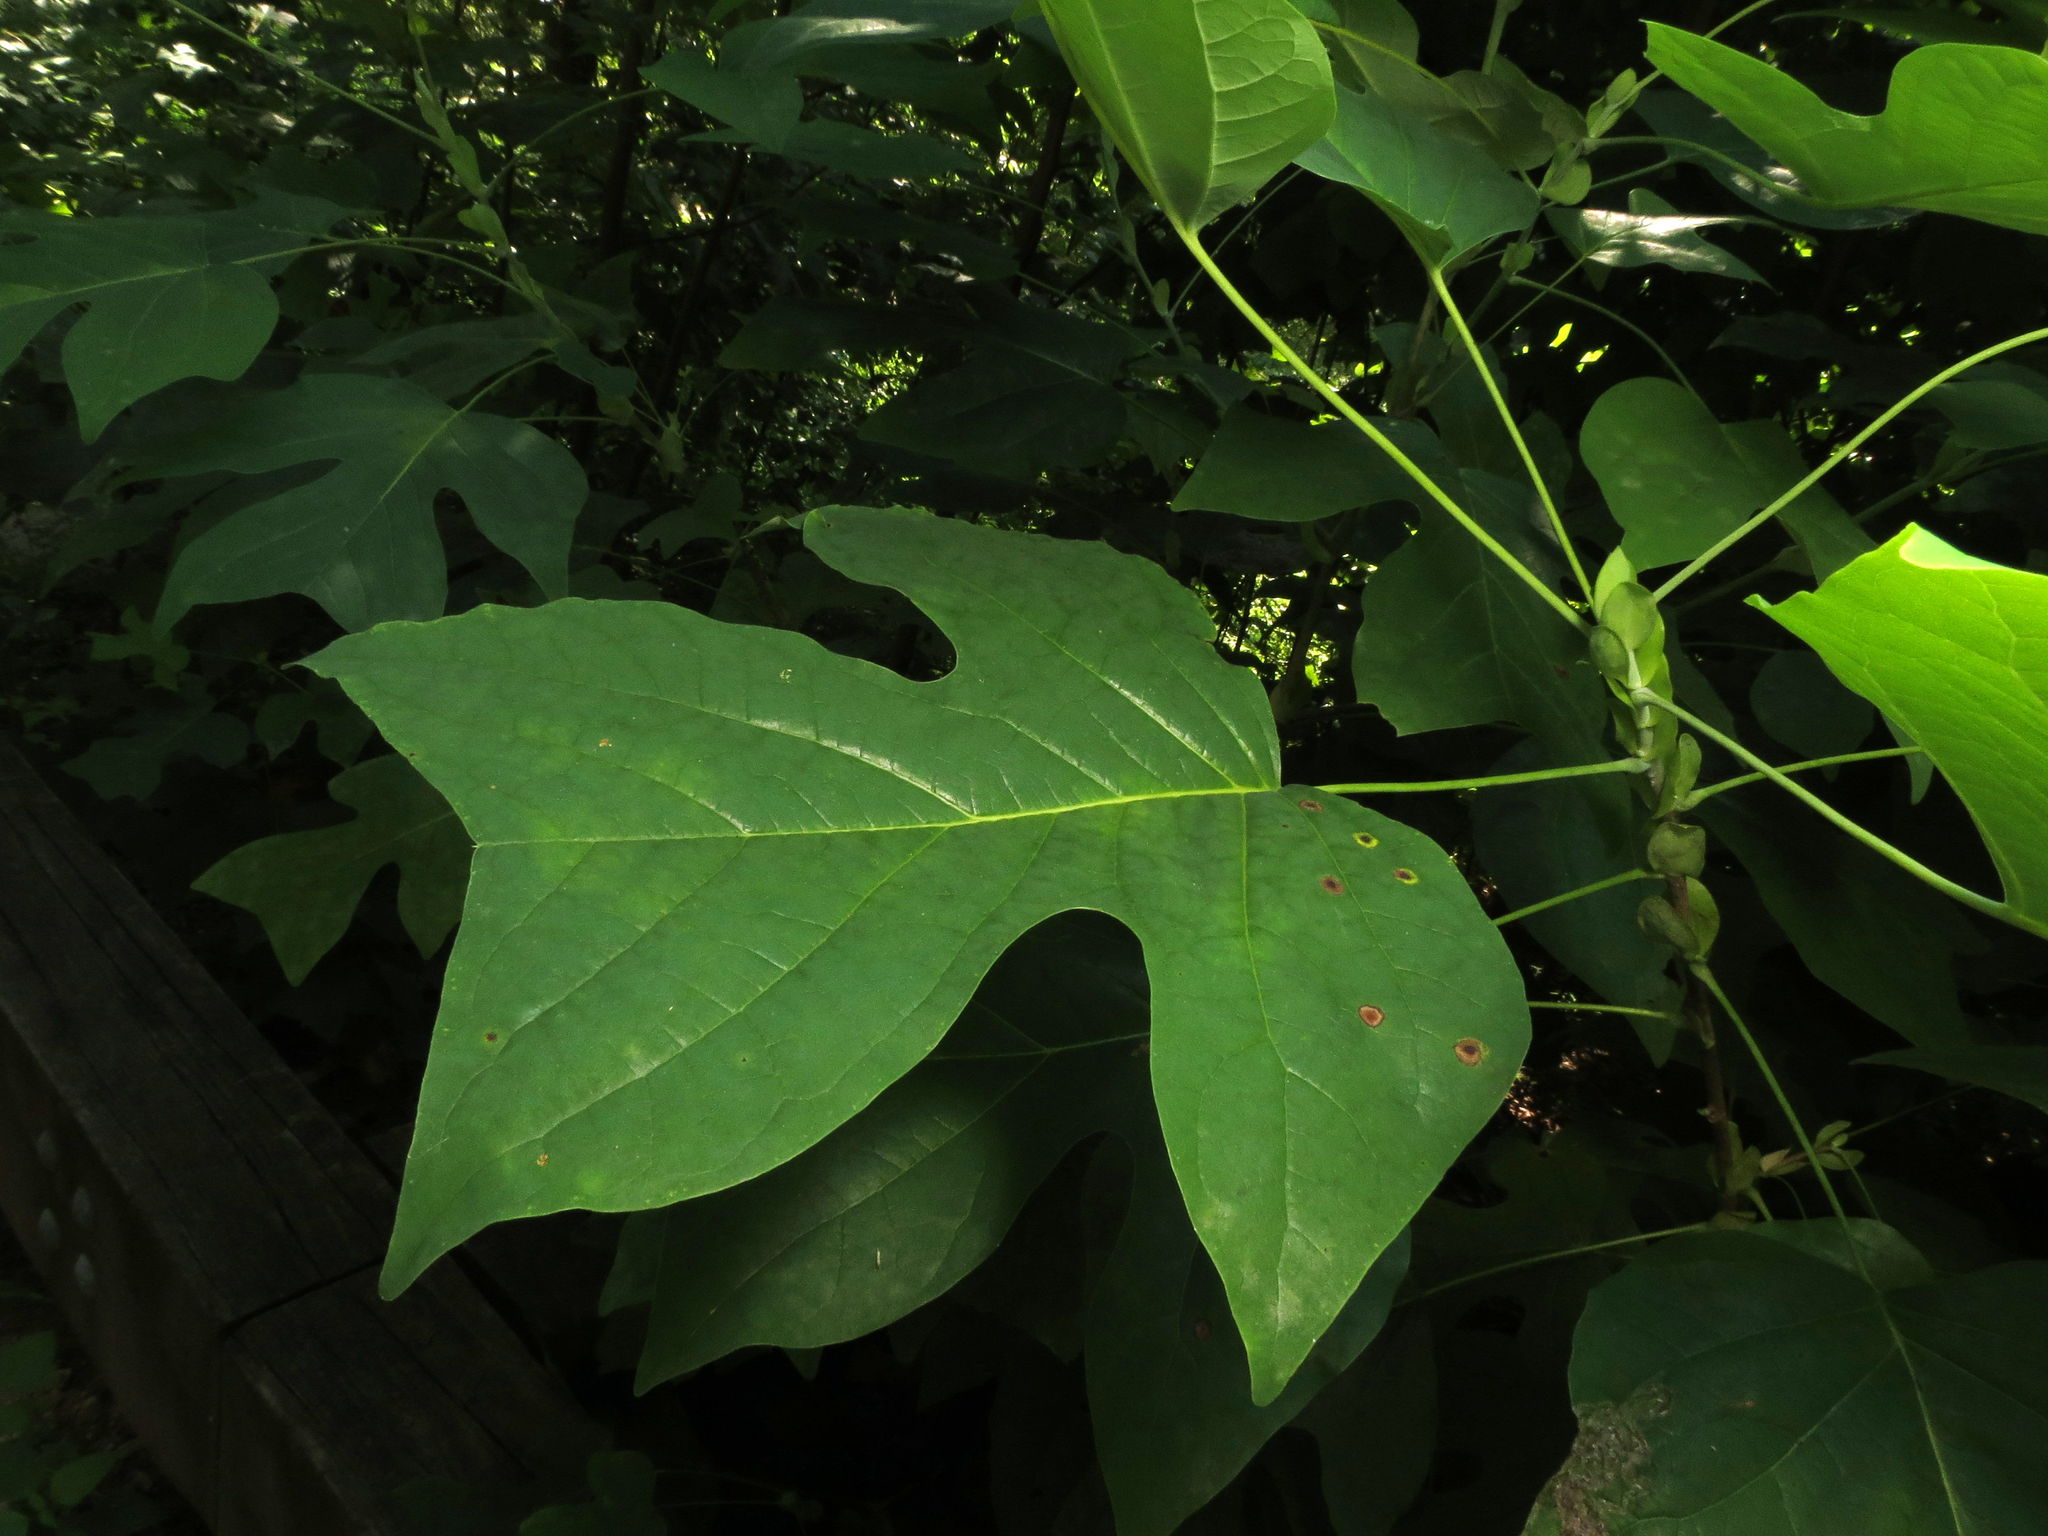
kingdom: Plantae
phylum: Tracheophyta
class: Magnoliopsida
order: Magnoliales
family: Magnoliaceae
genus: Liriodendron
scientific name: Liriodendron tulipifera
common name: Tulip tree
